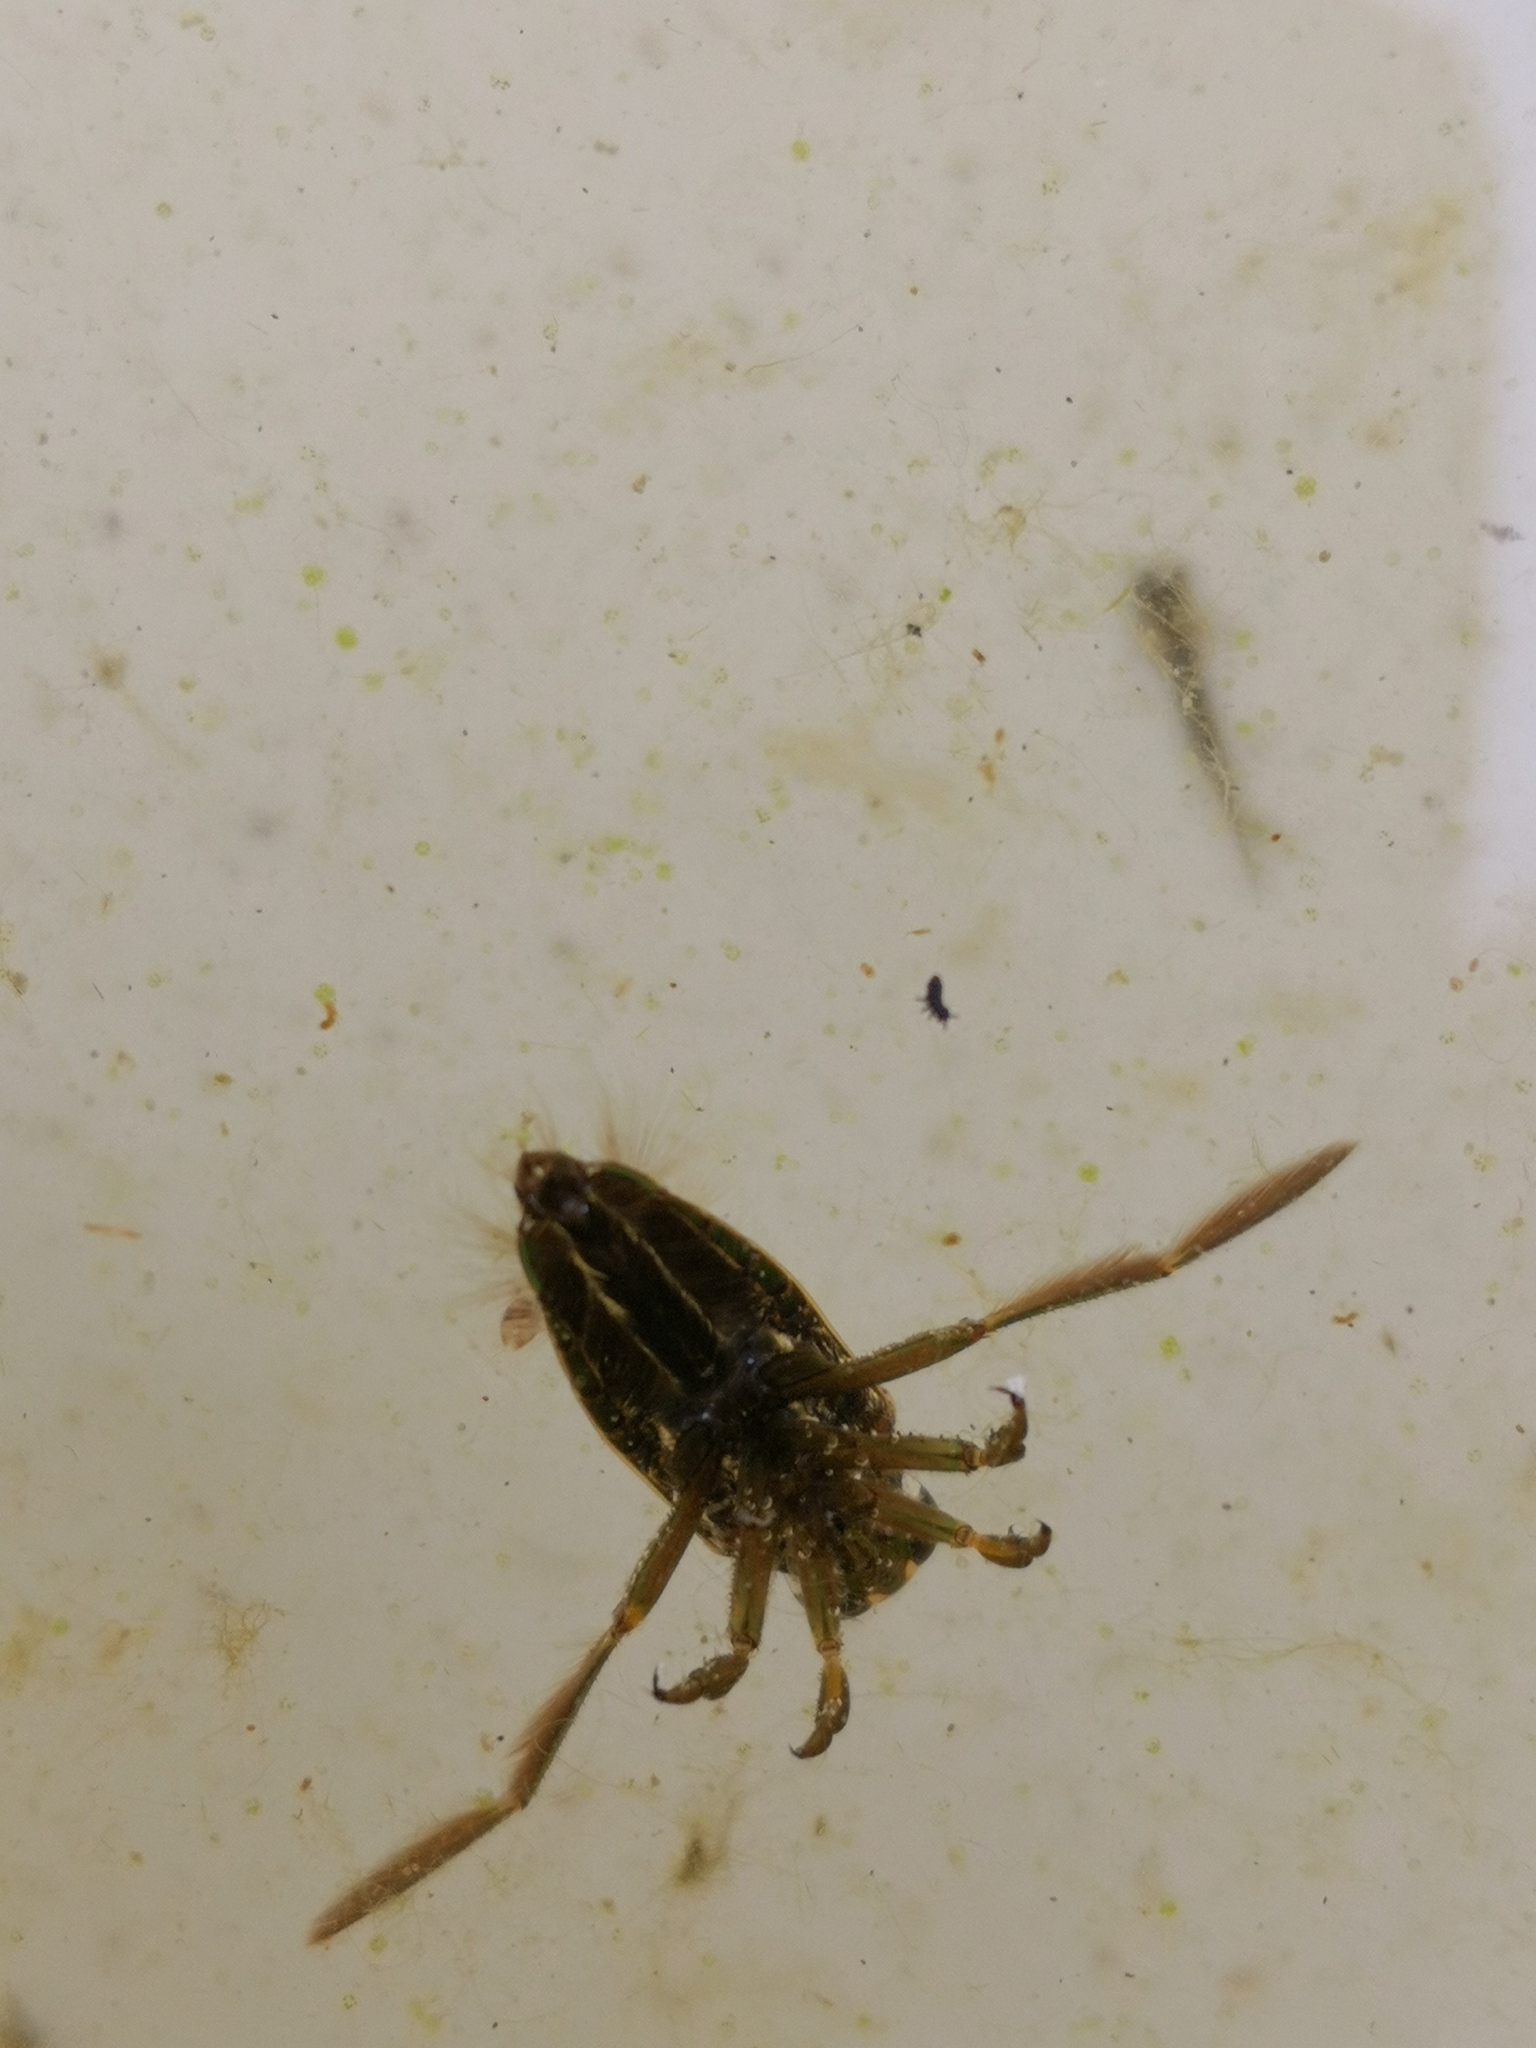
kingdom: Animalia
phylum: Arthropoda
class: Insecta
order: Hemiptera
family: Notonectidae
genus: Notonecta
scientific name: Notonecta
